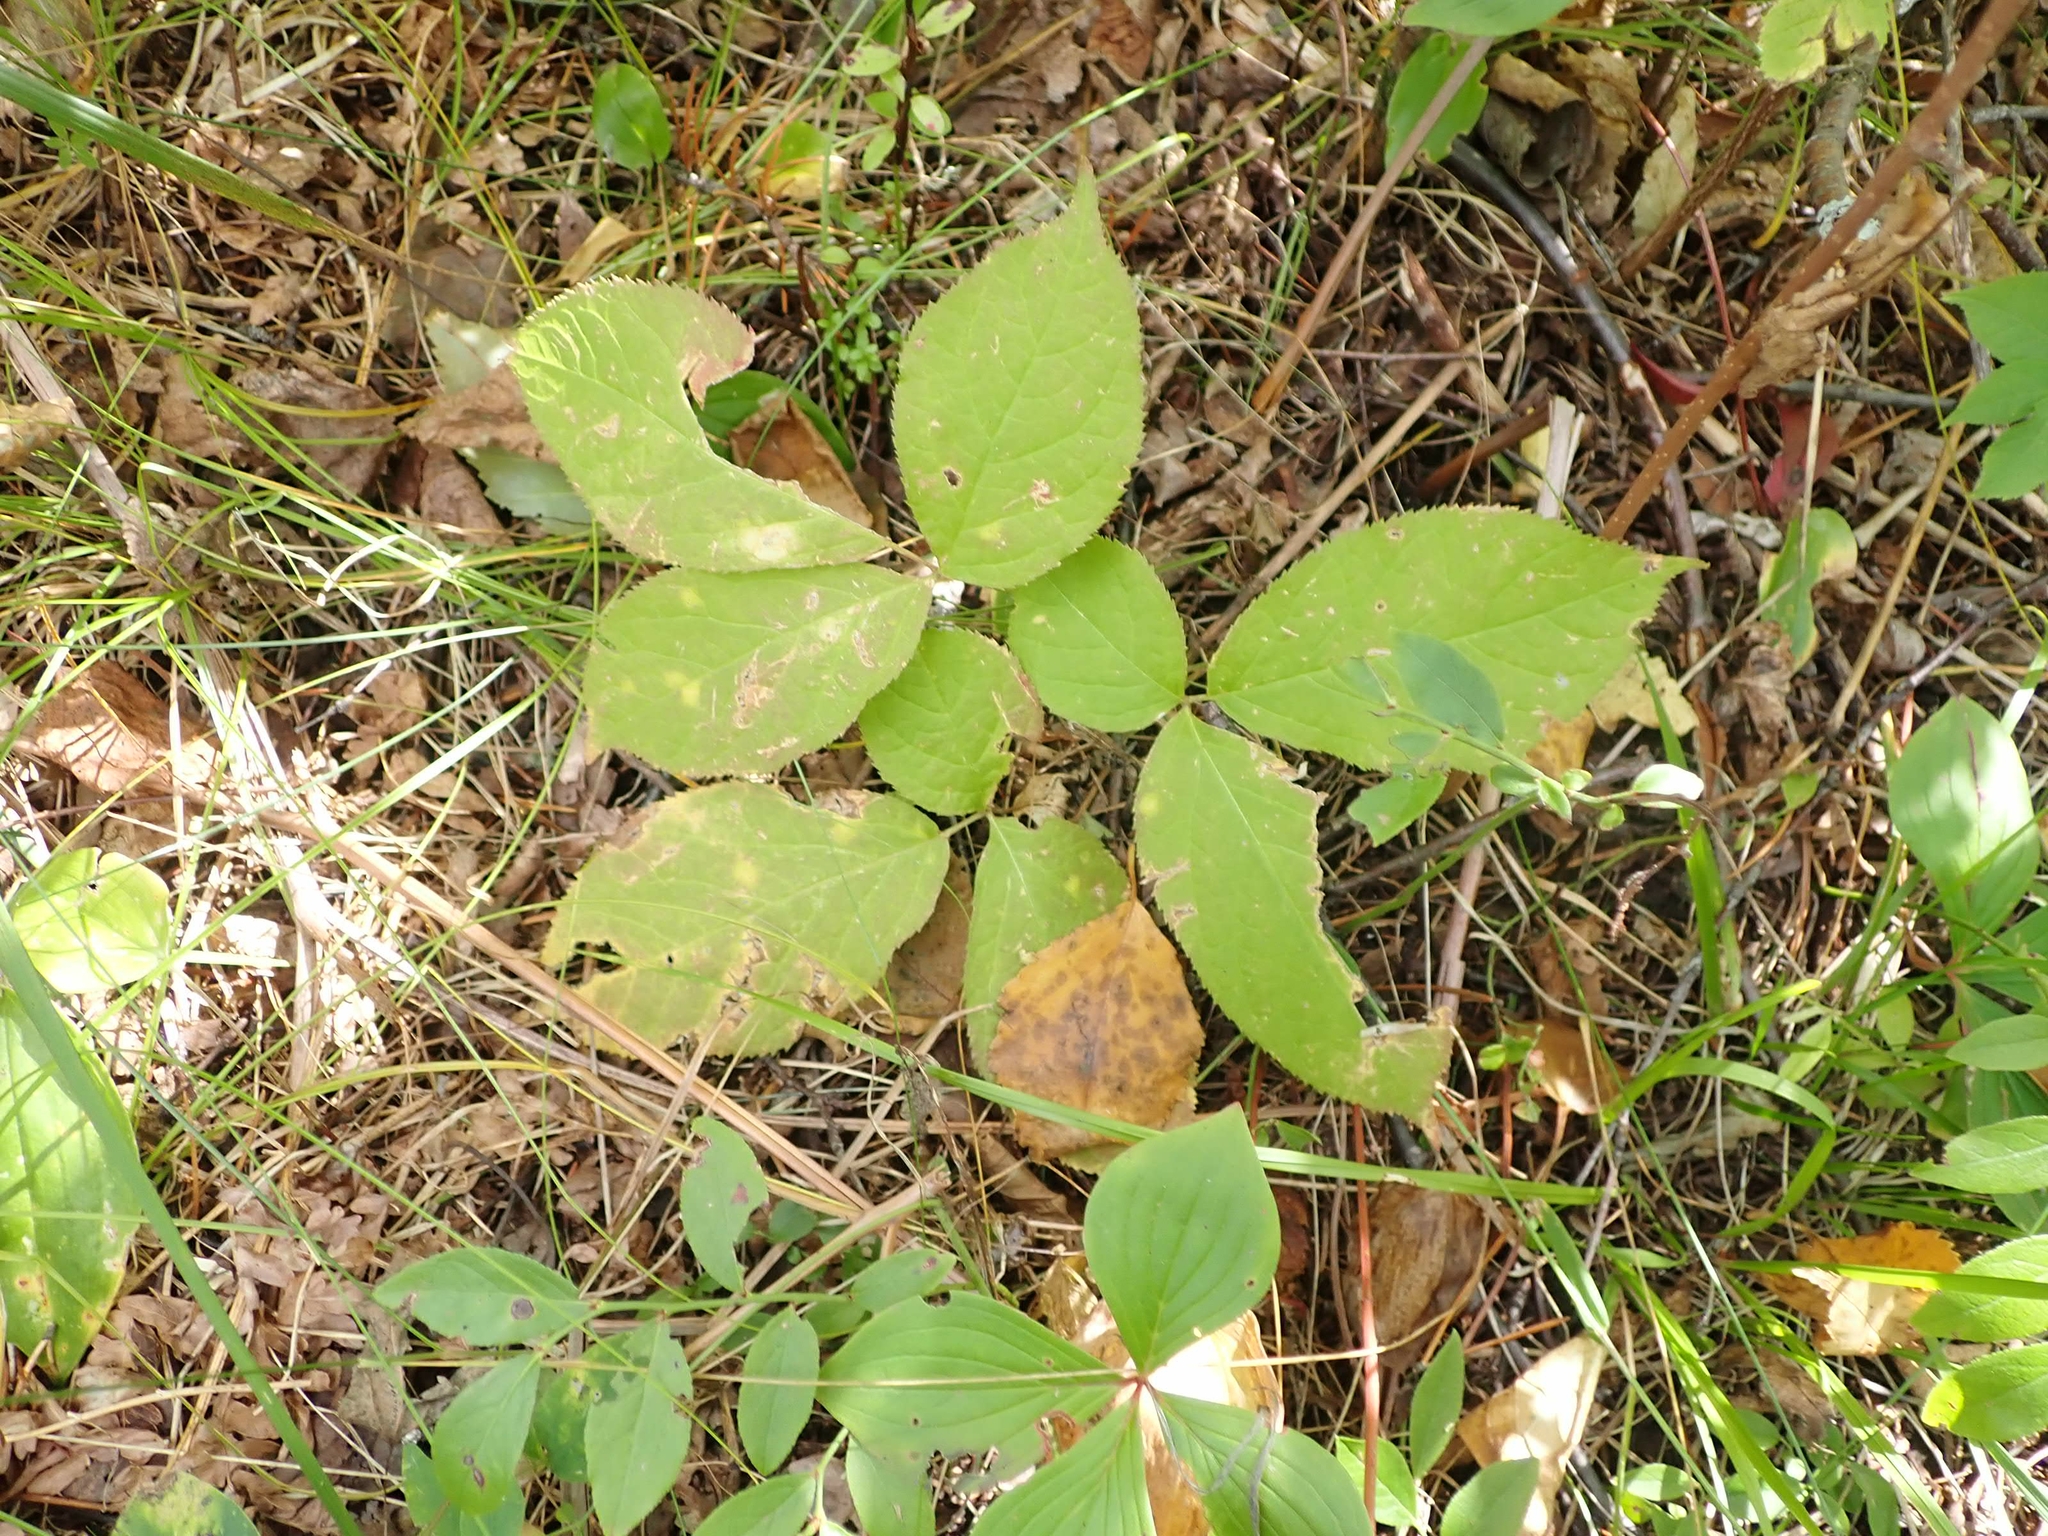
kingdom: Plantae
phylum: Tracheophyta
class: Magnoliopsida
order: Apiales
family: Araliaceae
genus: Aralia
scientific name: Aralia nudicaulis
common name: Wild sarsaparilla
